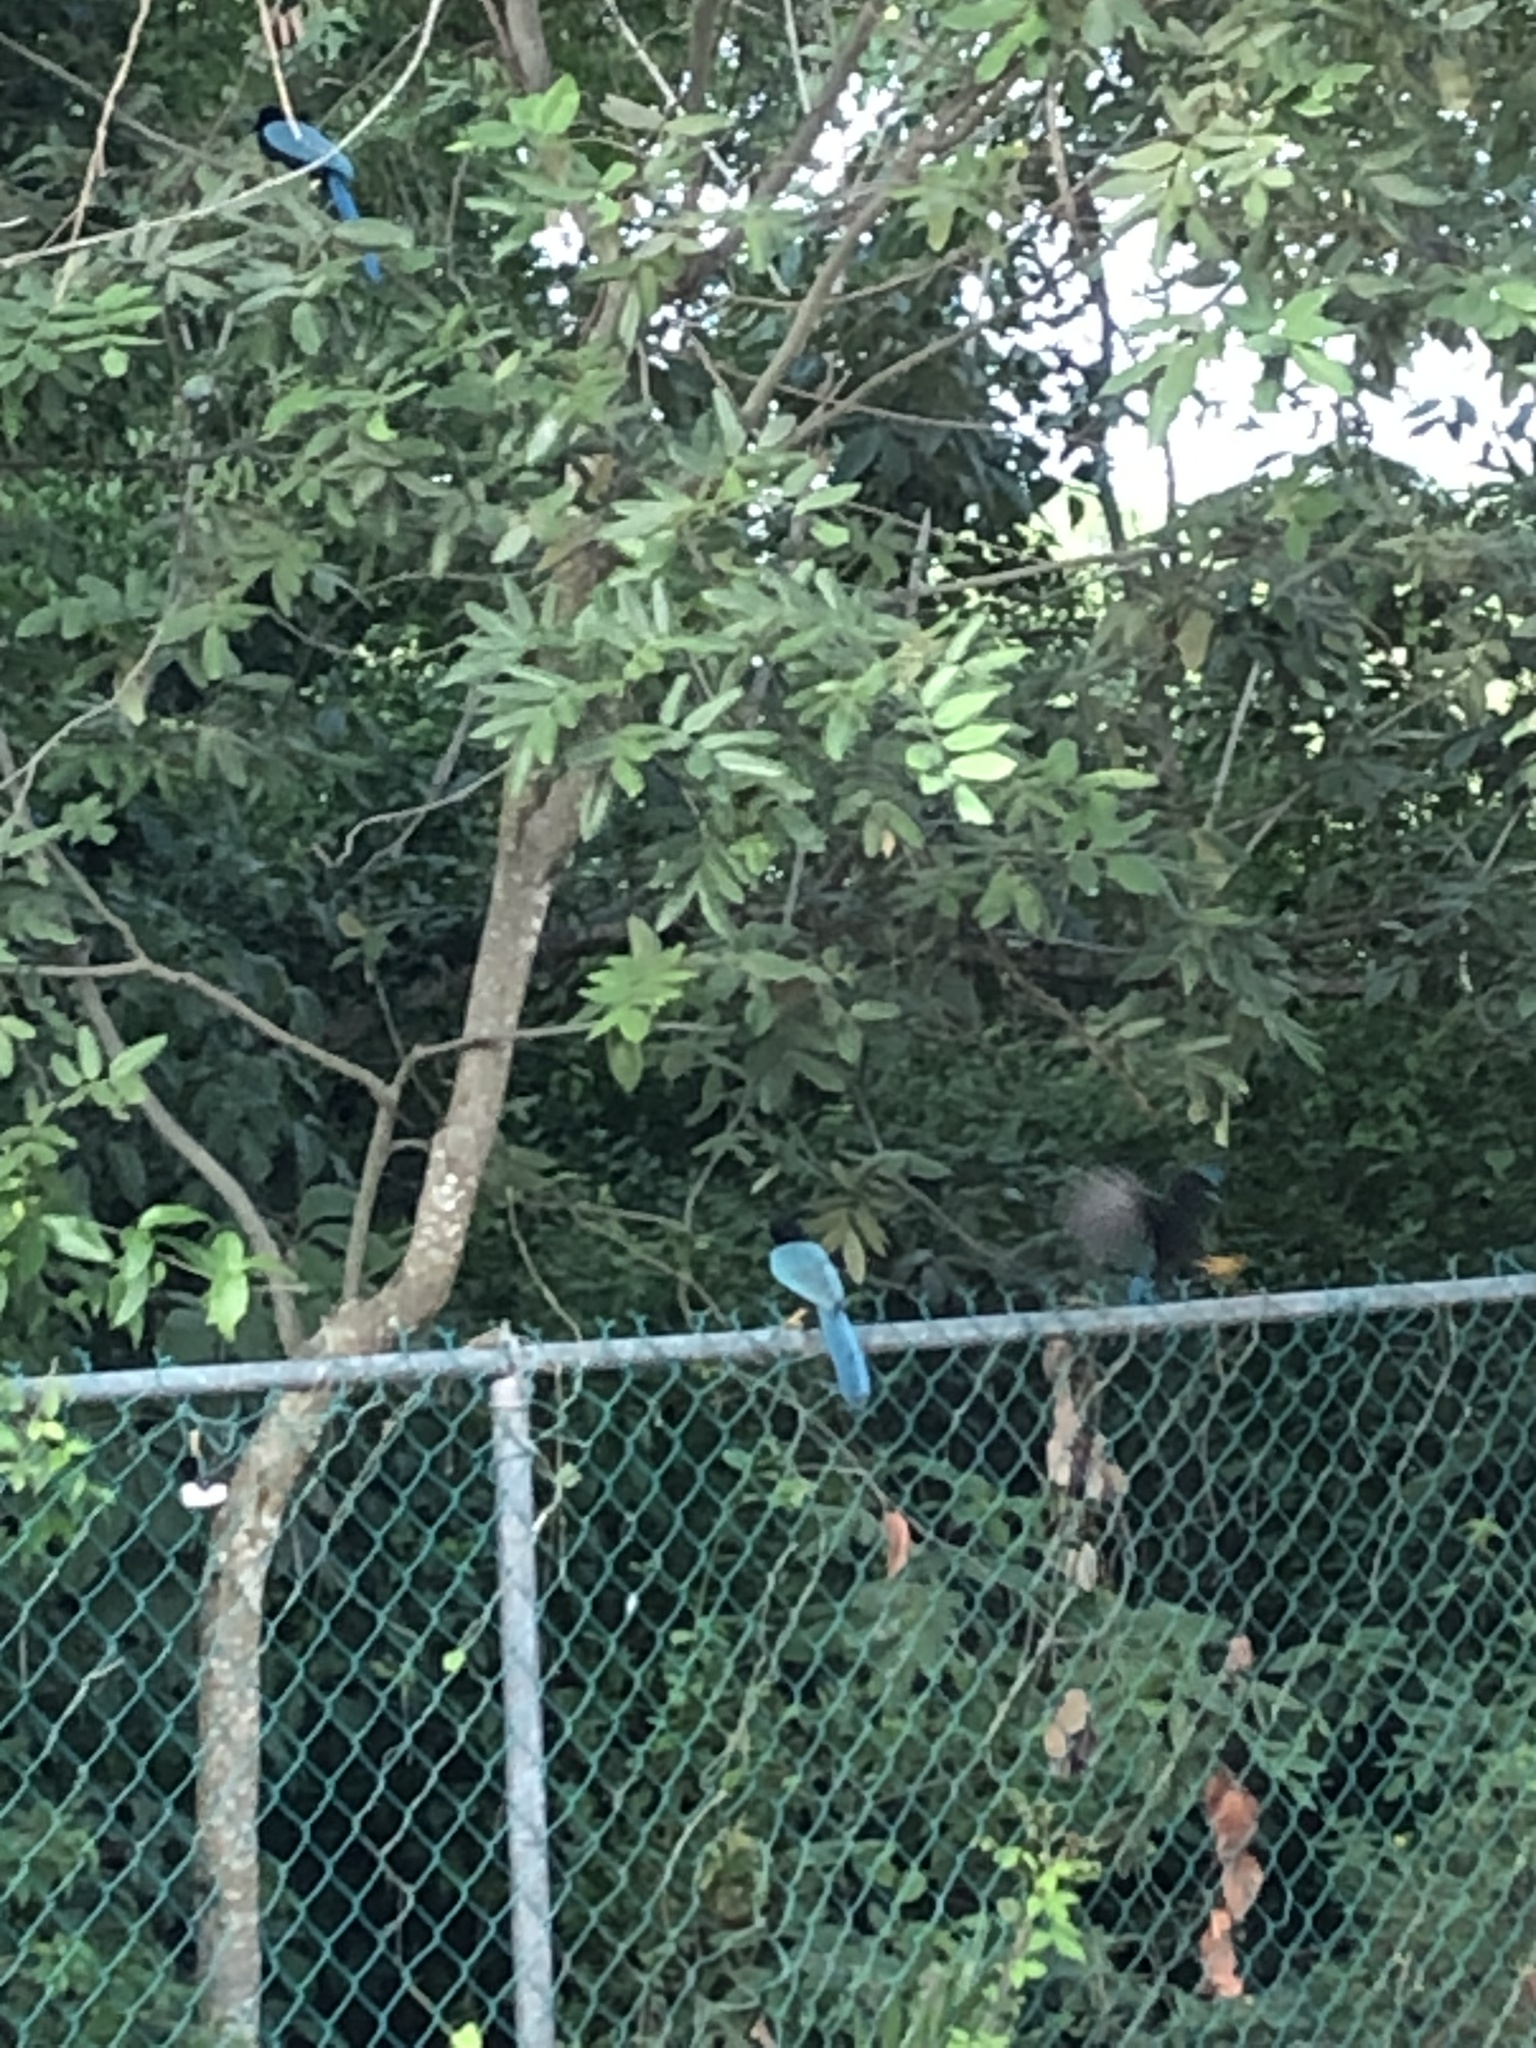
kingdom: Animalia
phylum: Chordata
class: Aves
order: Passeriformes
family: Corvidae
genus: Cyanocorax
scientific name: Cyanocorax yucatanicus
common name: Yucatan jay
